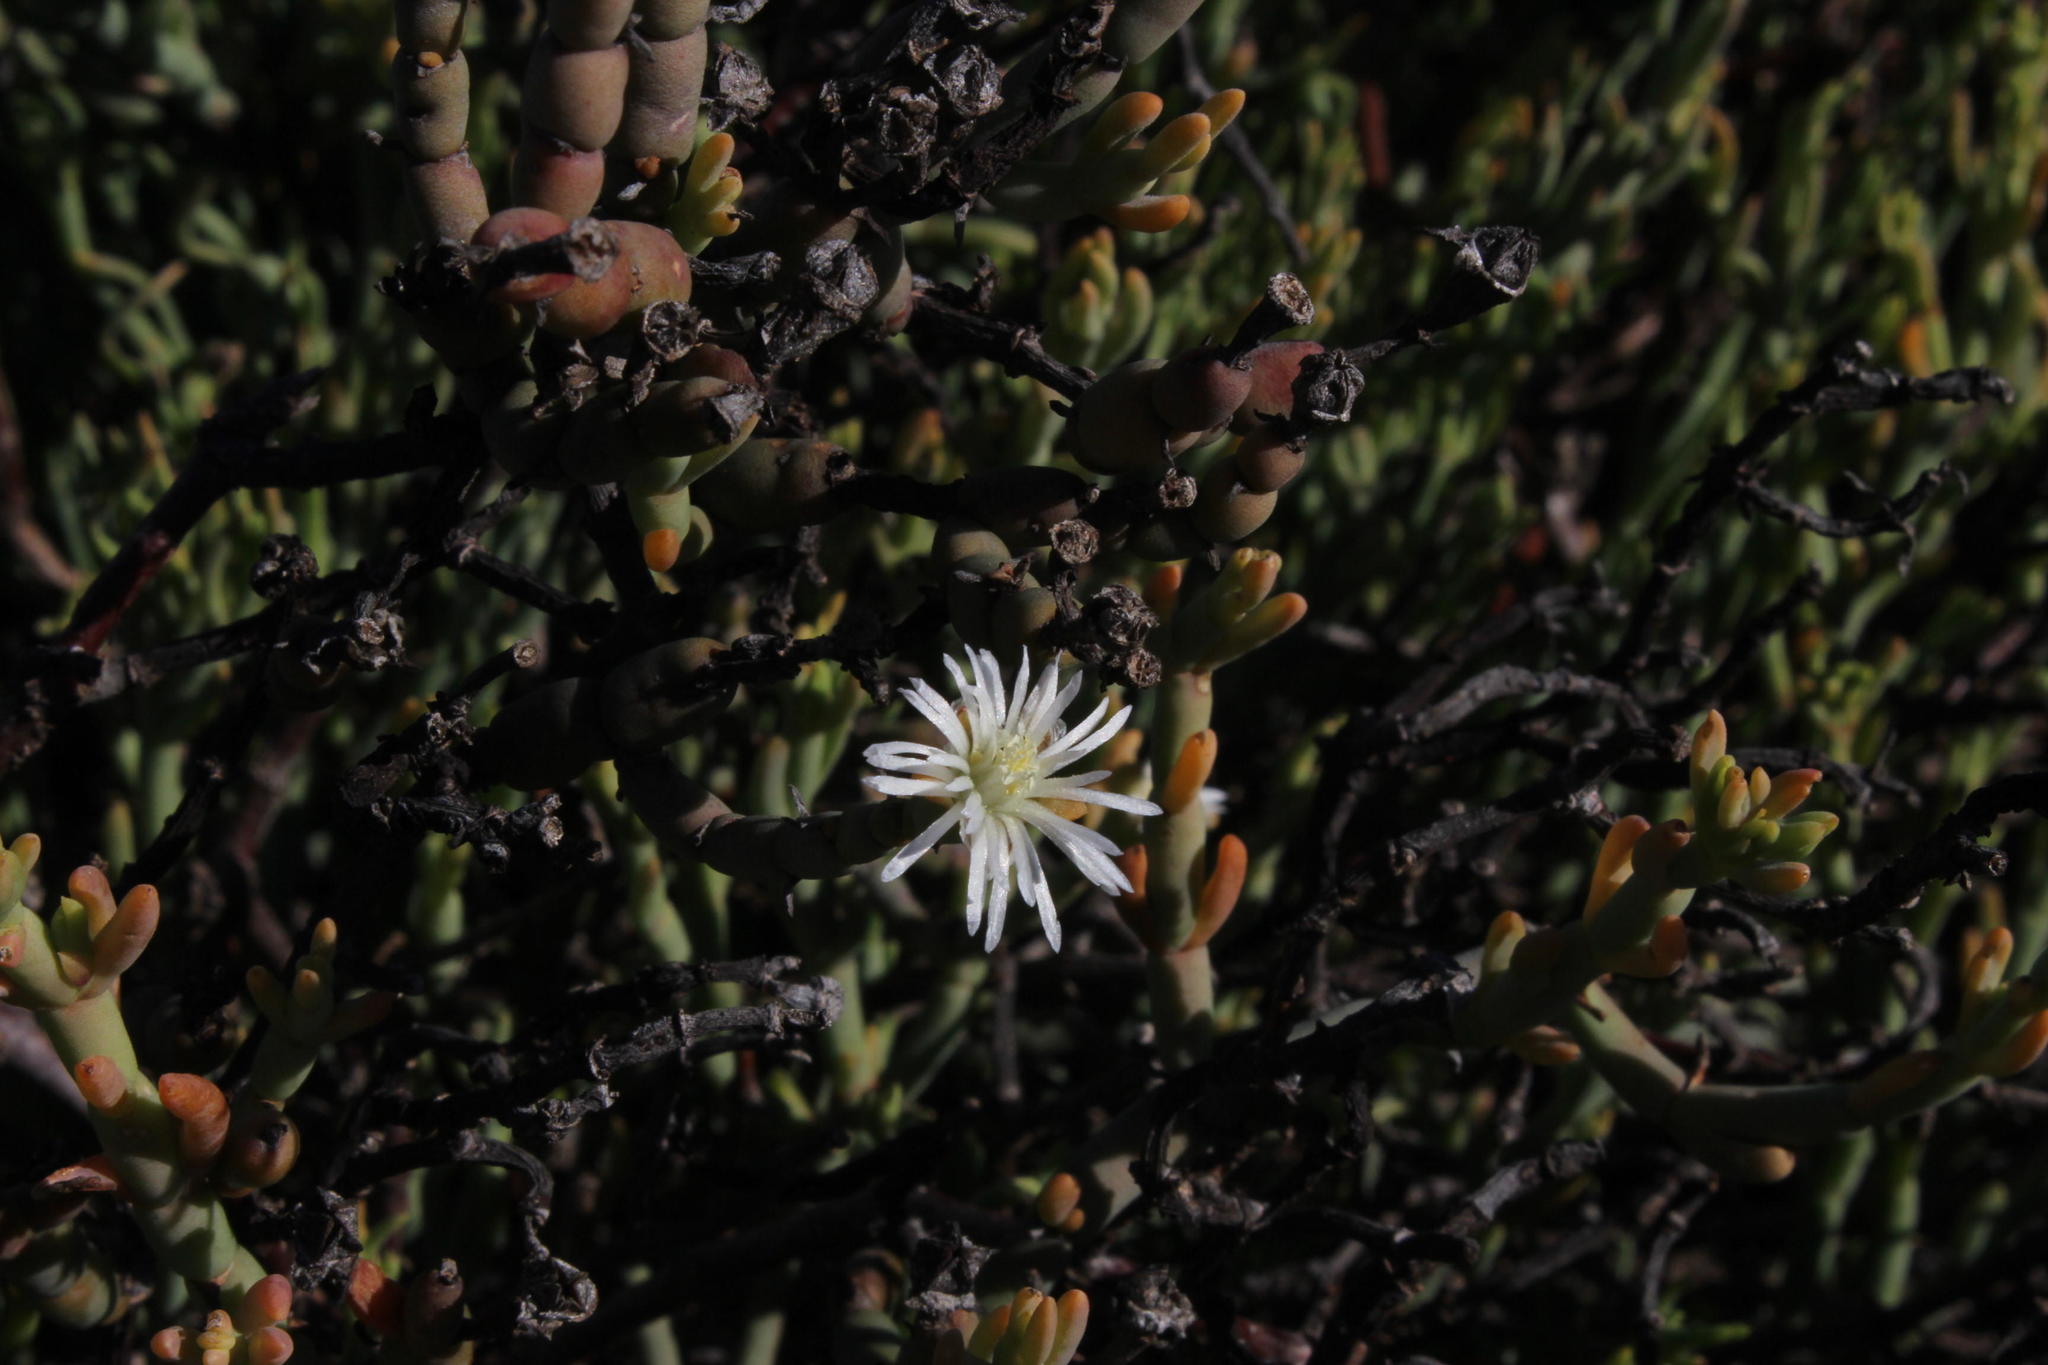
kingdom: Plantae
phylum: Tracheophyta
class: Magnoliopsida
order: Caryophyllales
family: Aizoaceae
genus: Mesembryanthemum
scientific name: Mesembryanthemum leptarthron
